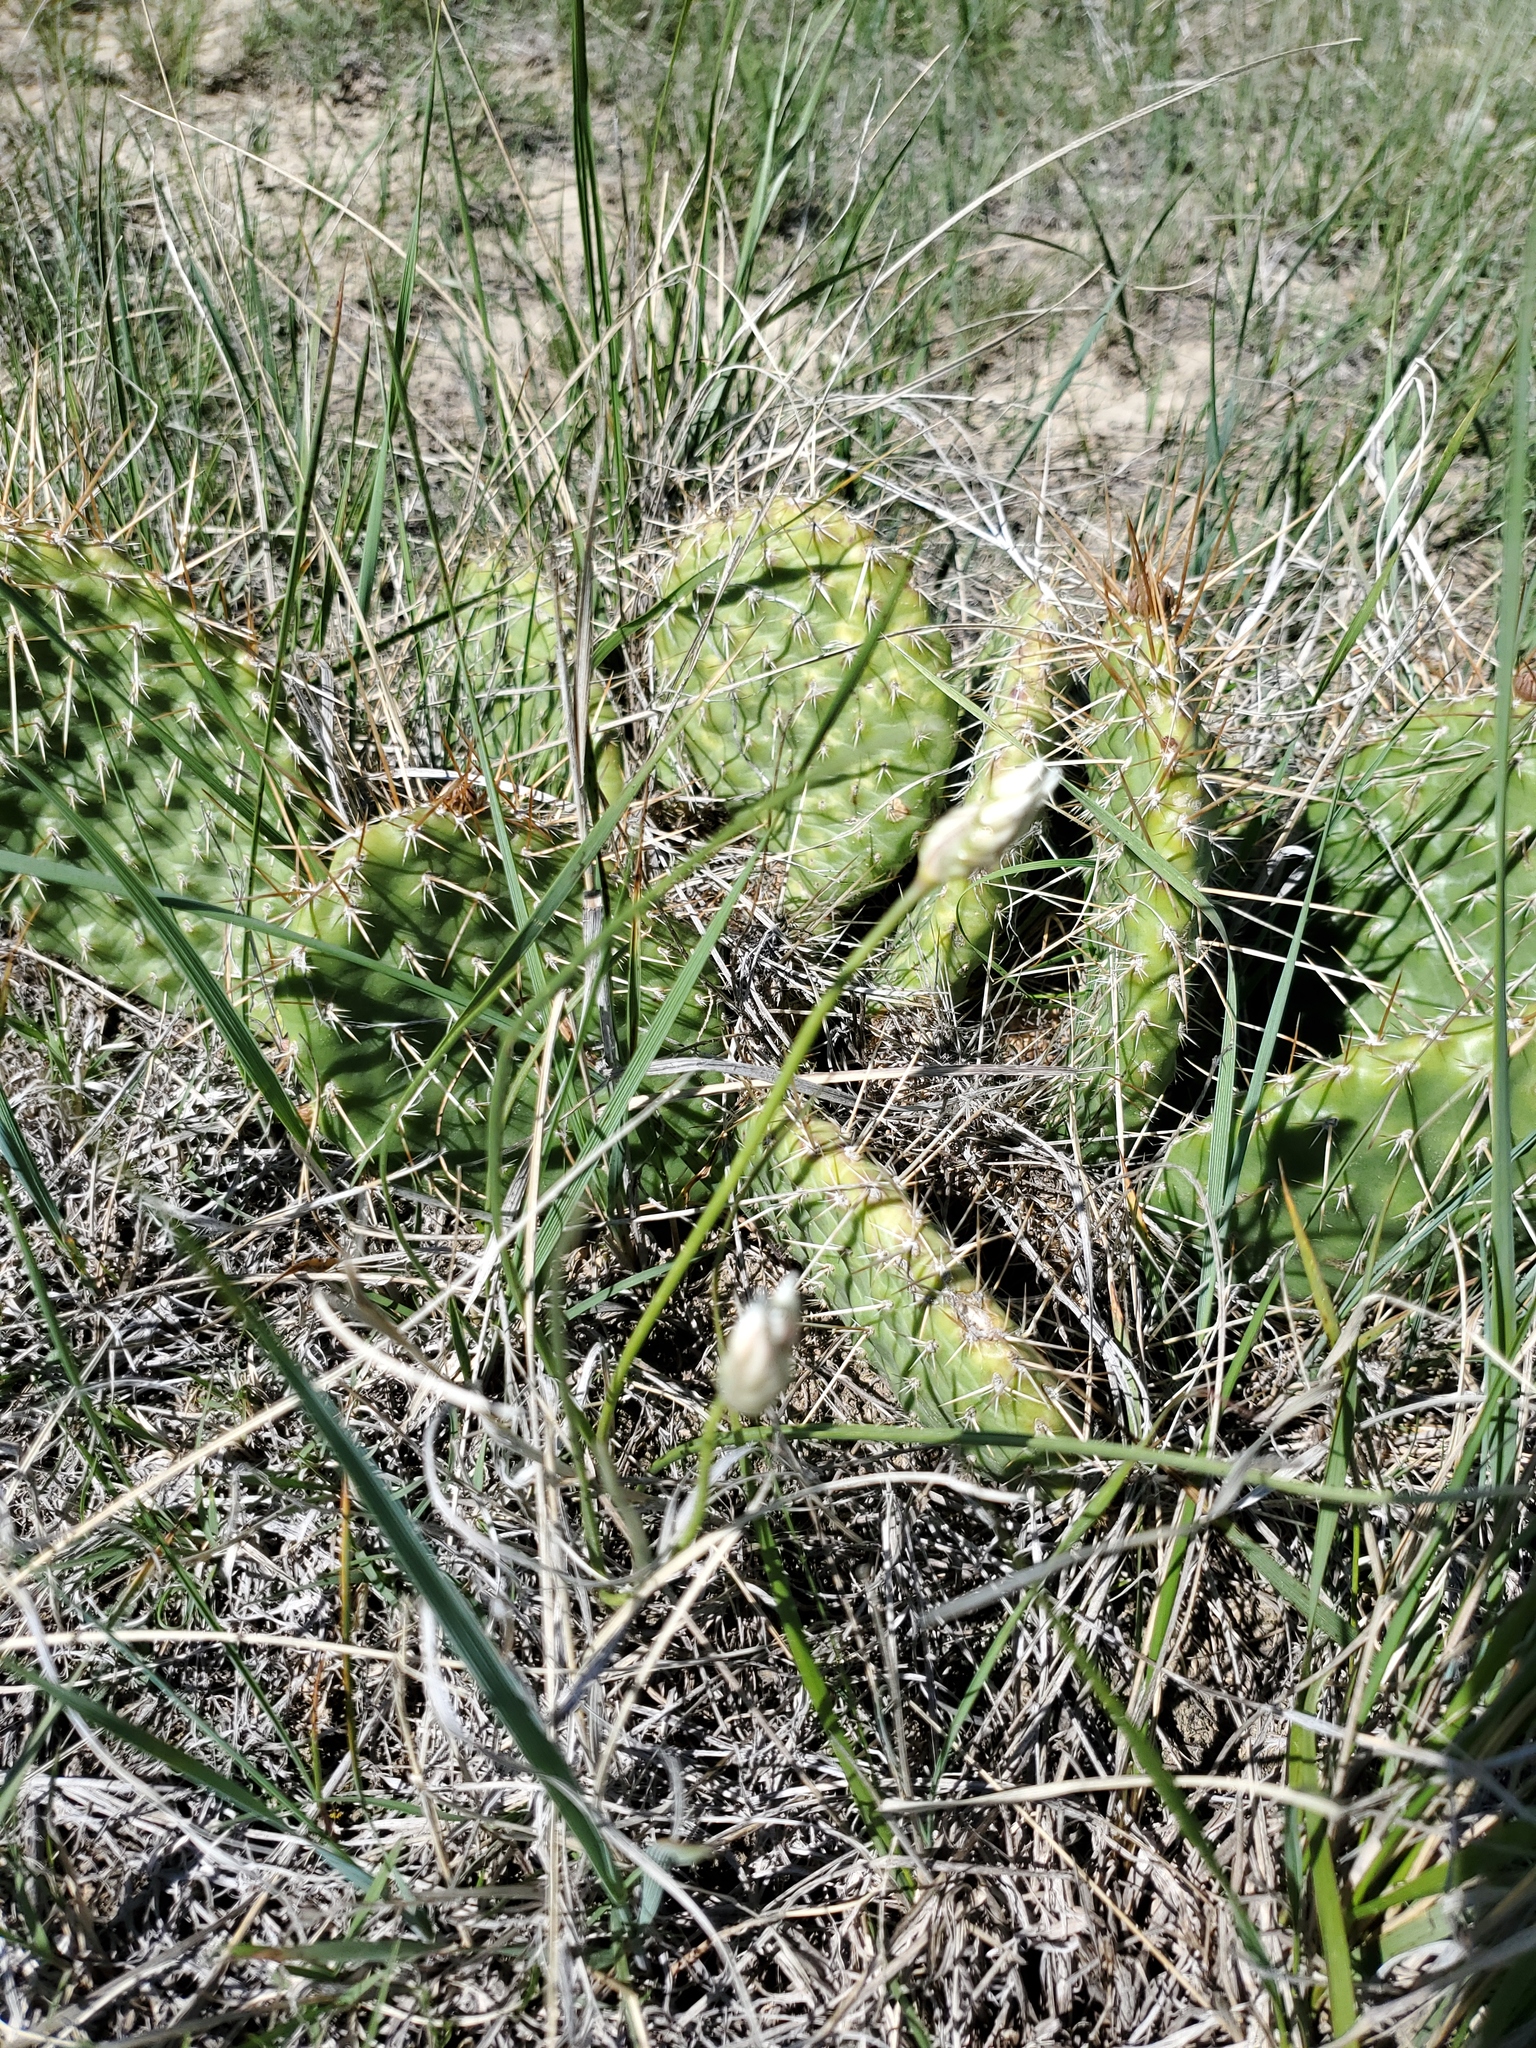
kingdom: Plantae
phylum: Tracheophyta
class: Magnoliopsida
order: Caryophyllales
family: Cactaceae
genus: Opuntia
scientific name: Opuntia polyacantha
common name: Plains prickly-pear
